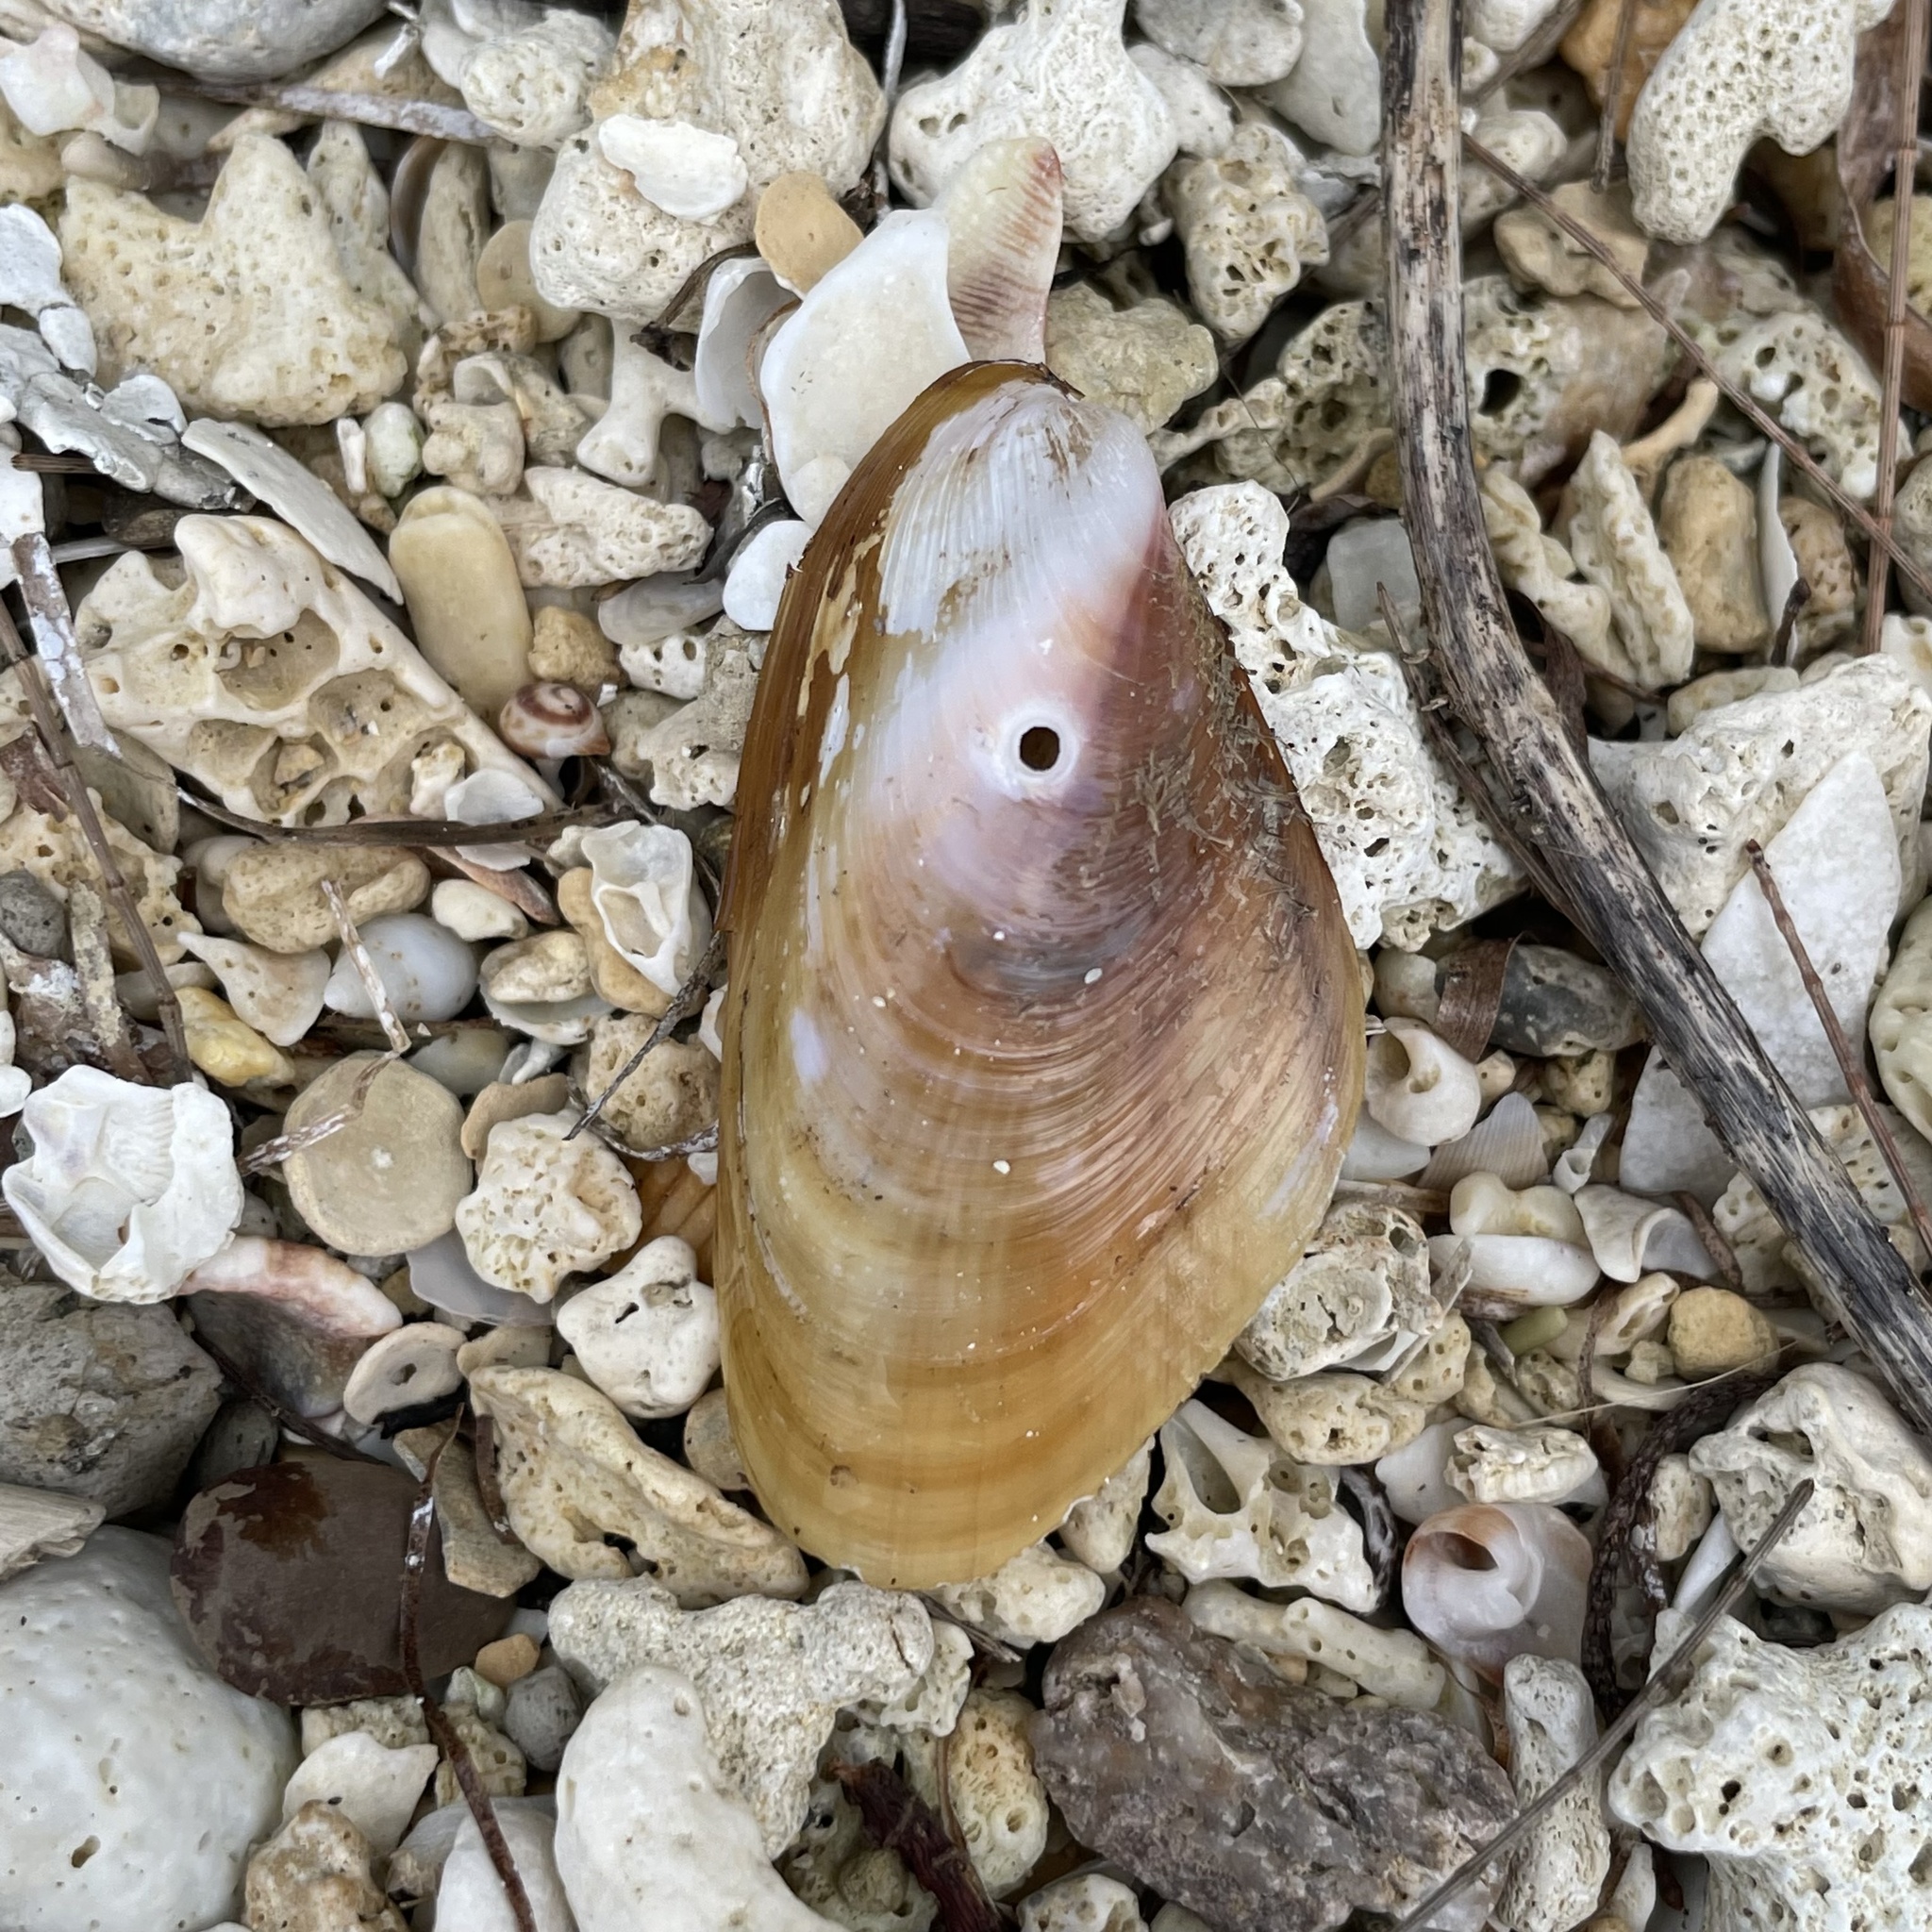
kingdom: Animalia
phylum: Mollusca
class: Bivalvia
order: Mytilida
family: Mytilidae
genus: Modiolus
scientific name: Modiolus auriculatus
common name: Ear mussel
